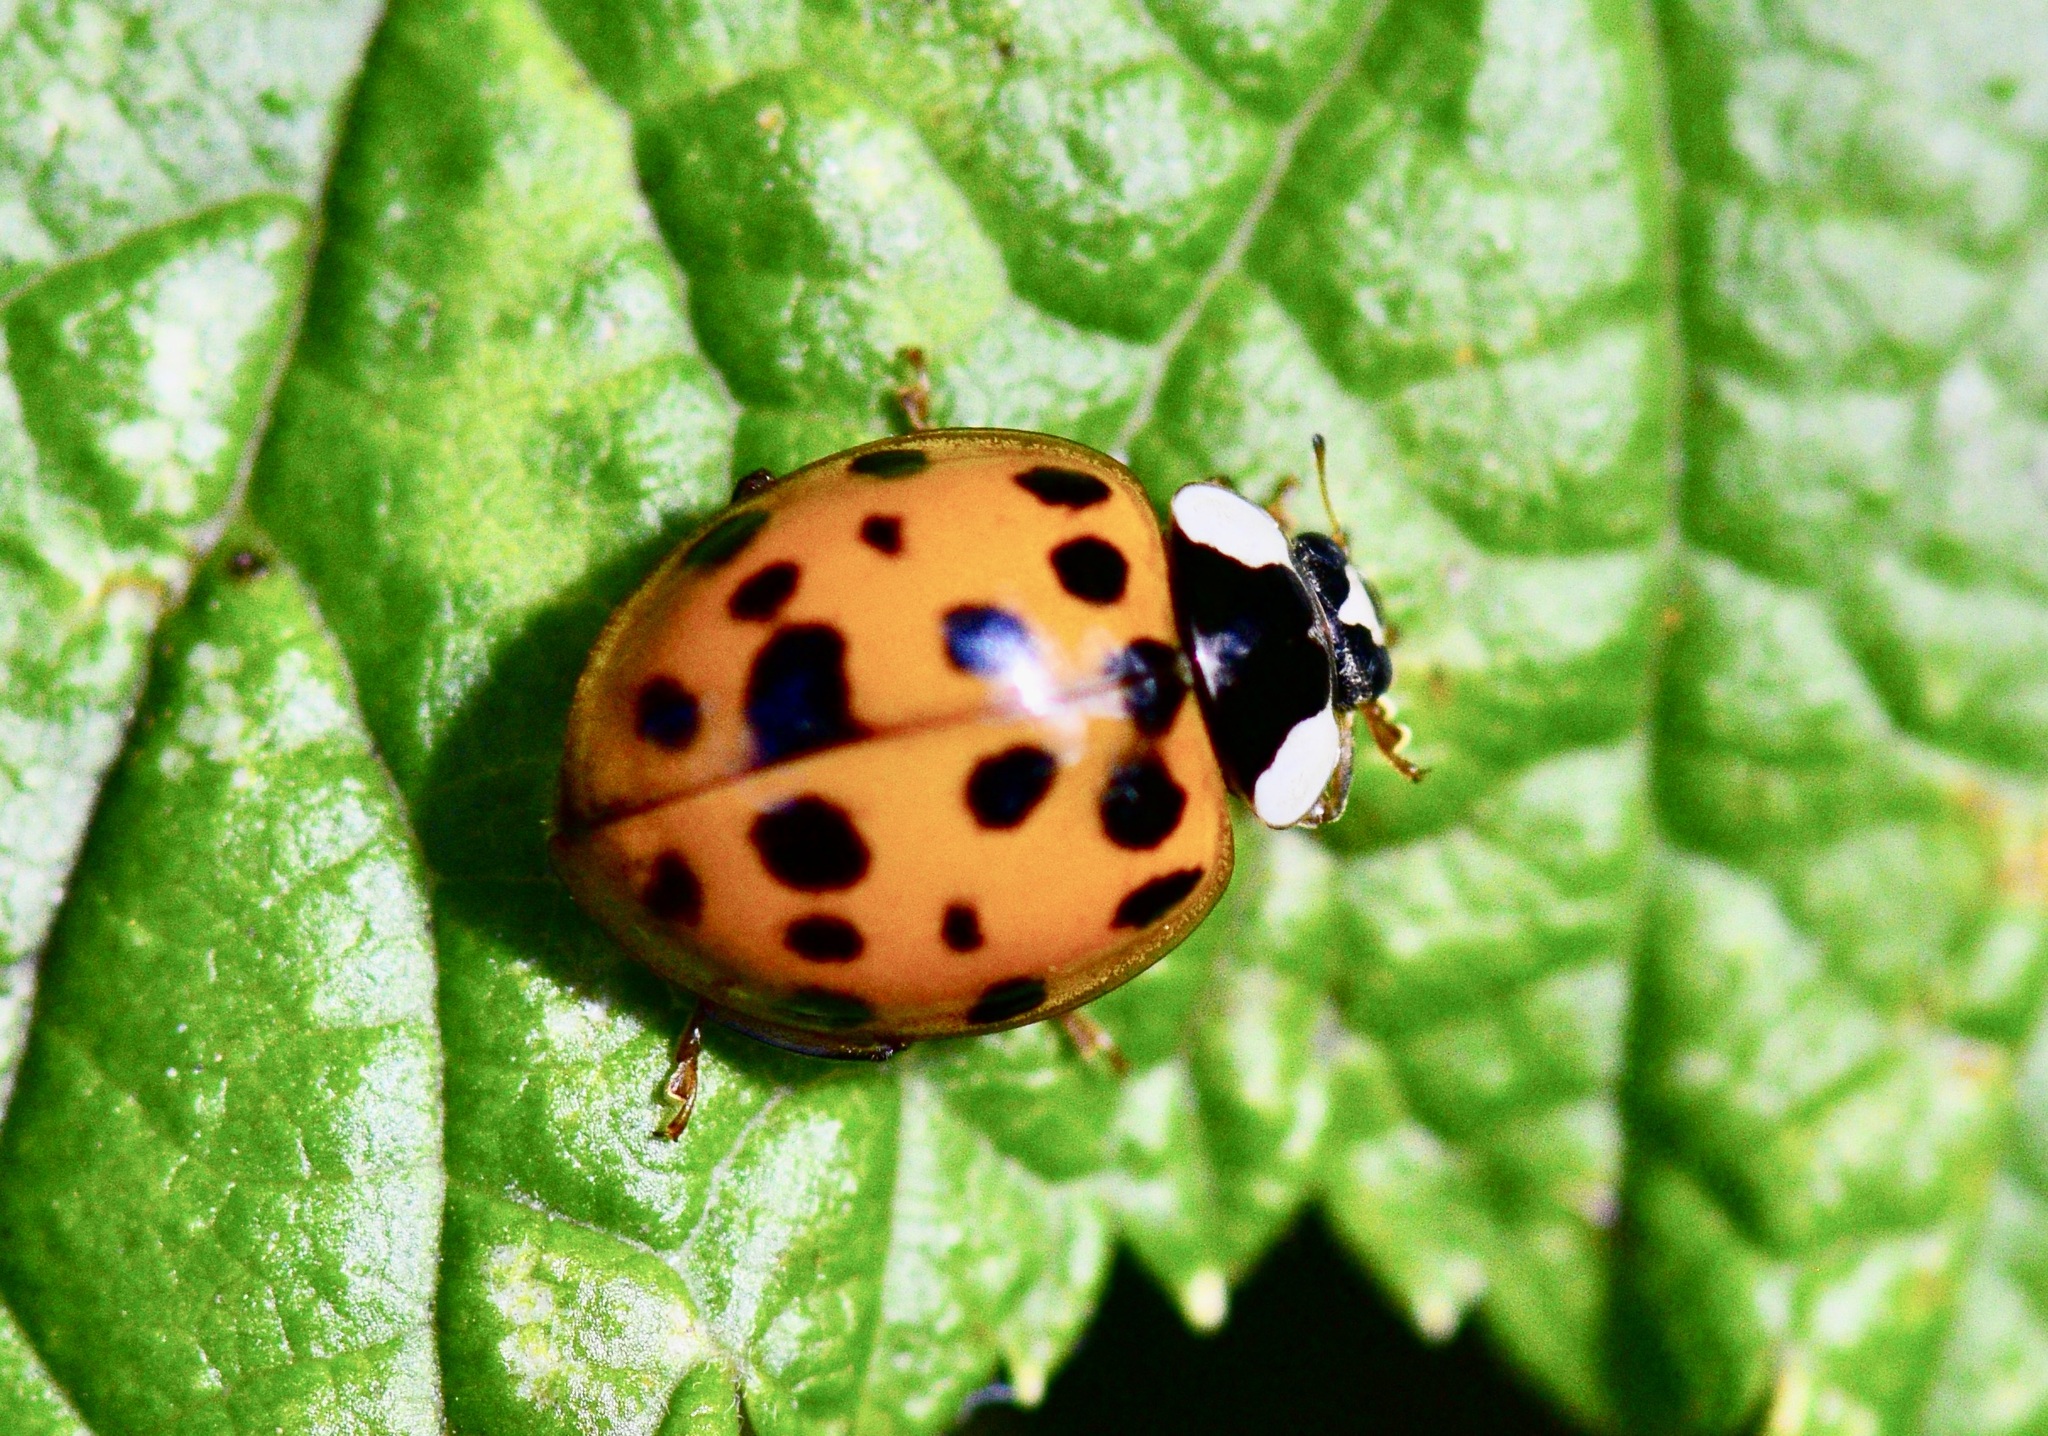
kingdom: Animalia
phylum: Arthropoda
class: Insecta
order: Coleoptera
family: Coccinellidae
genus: Harmonia
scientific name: Harmonia axyridis
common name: Harlequin ladybird
